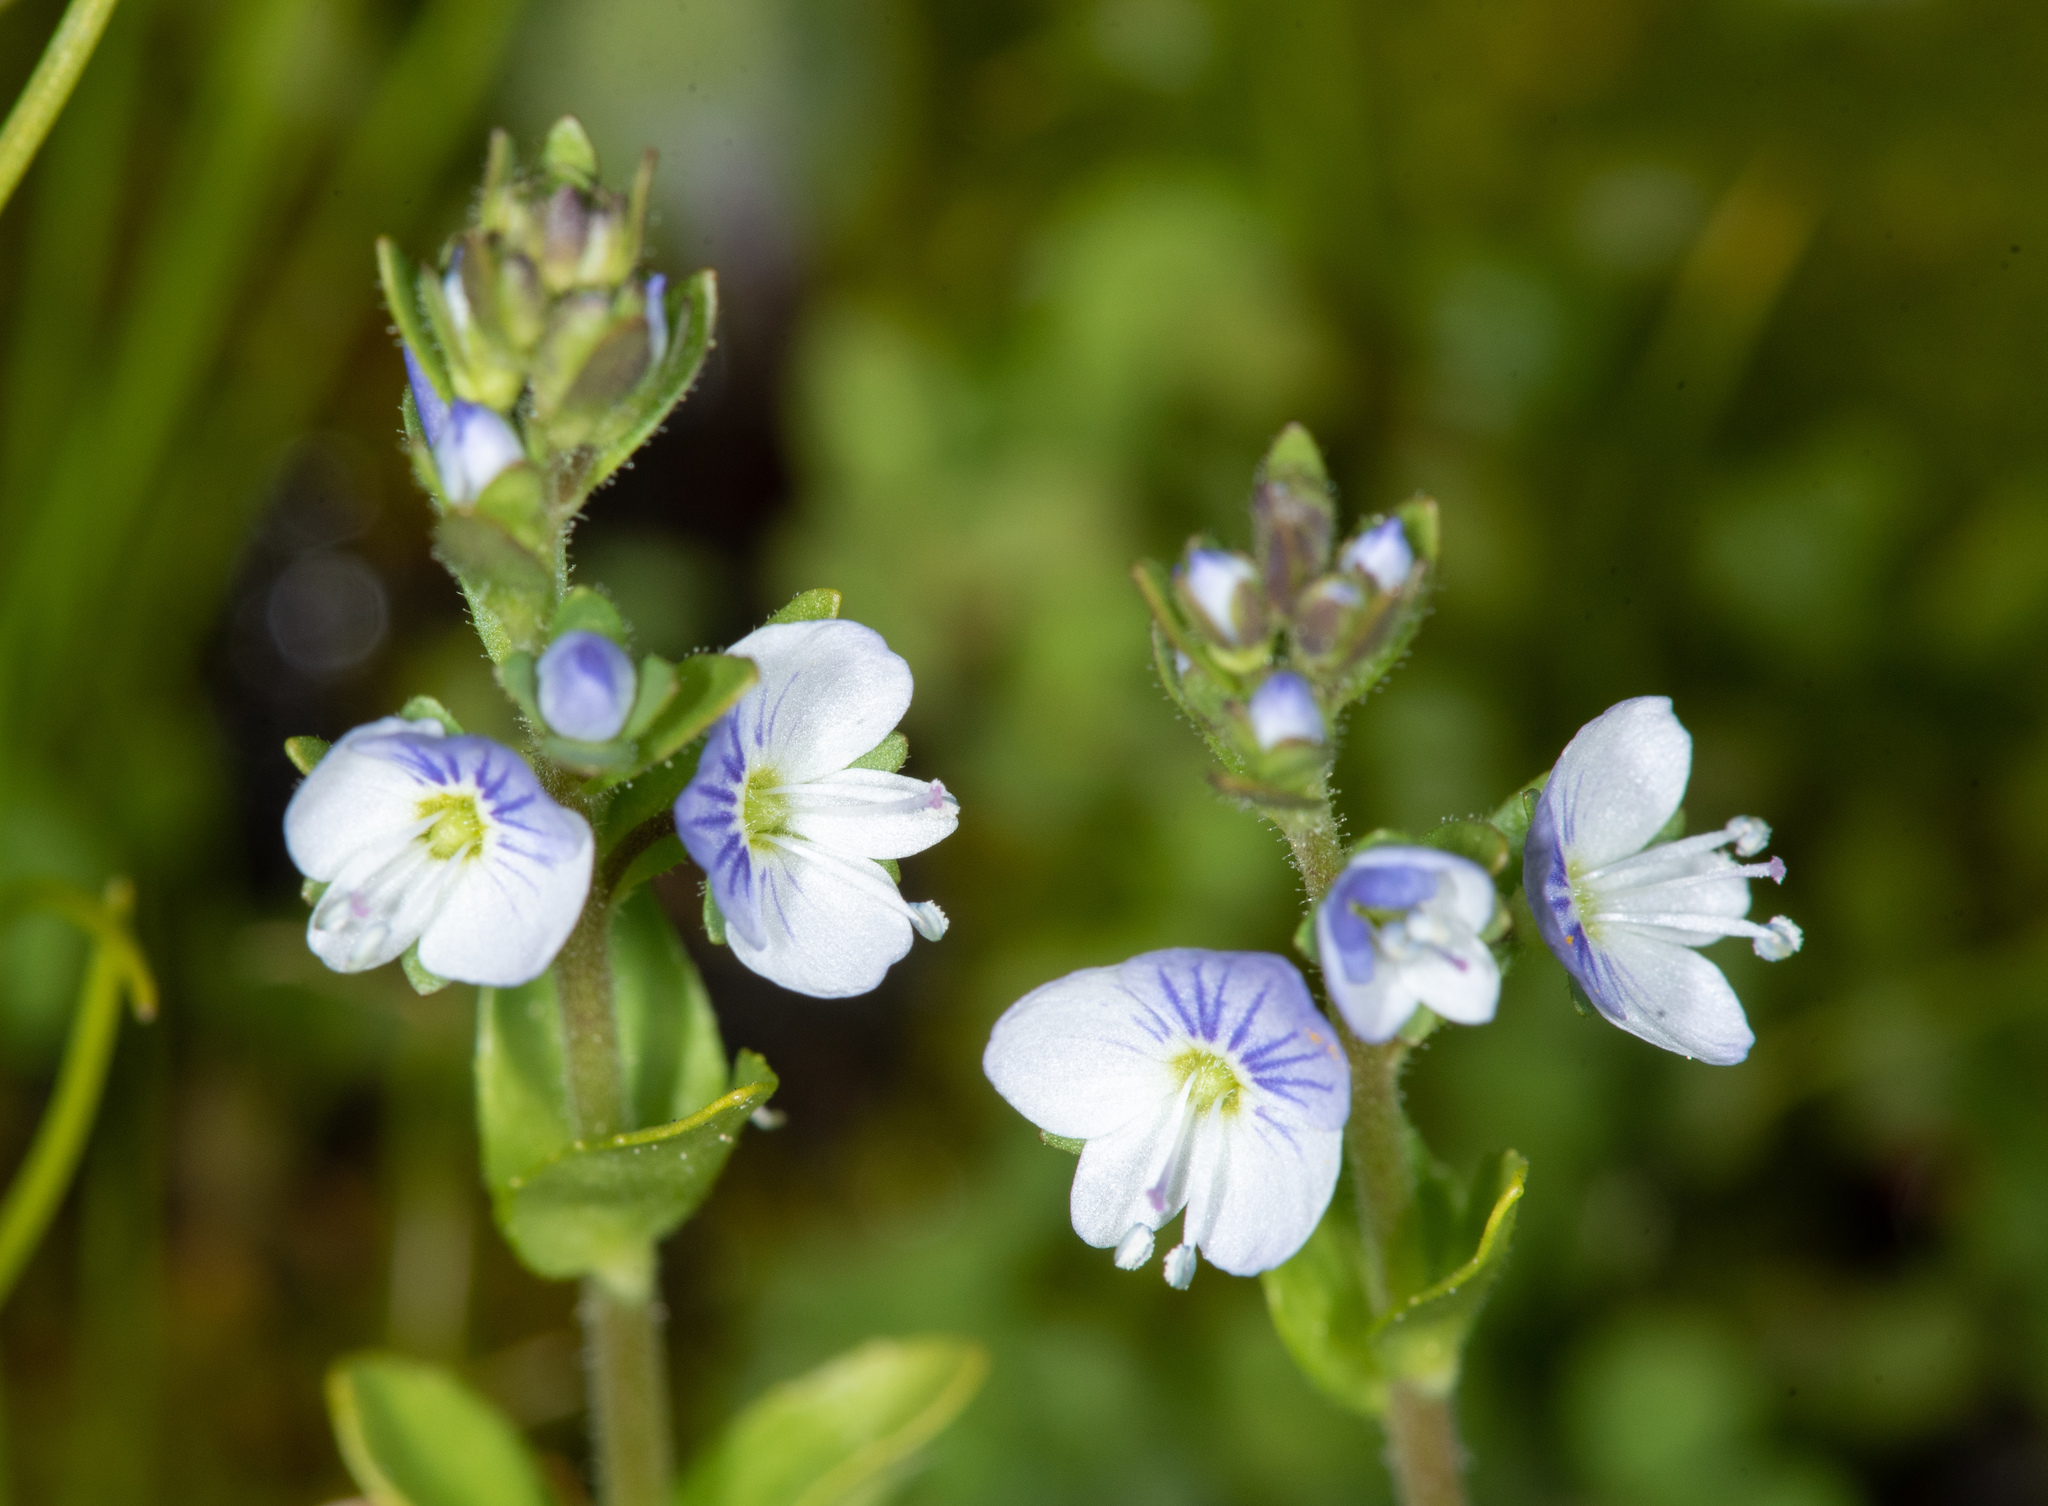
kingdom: Plantae
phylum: Tracheophyta
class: Magnoliopsida
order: Lamiales
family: Plantaginaceae
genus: Veronica
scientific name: Veronica serpyllifolia
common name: Thyme-leaved speedwell
